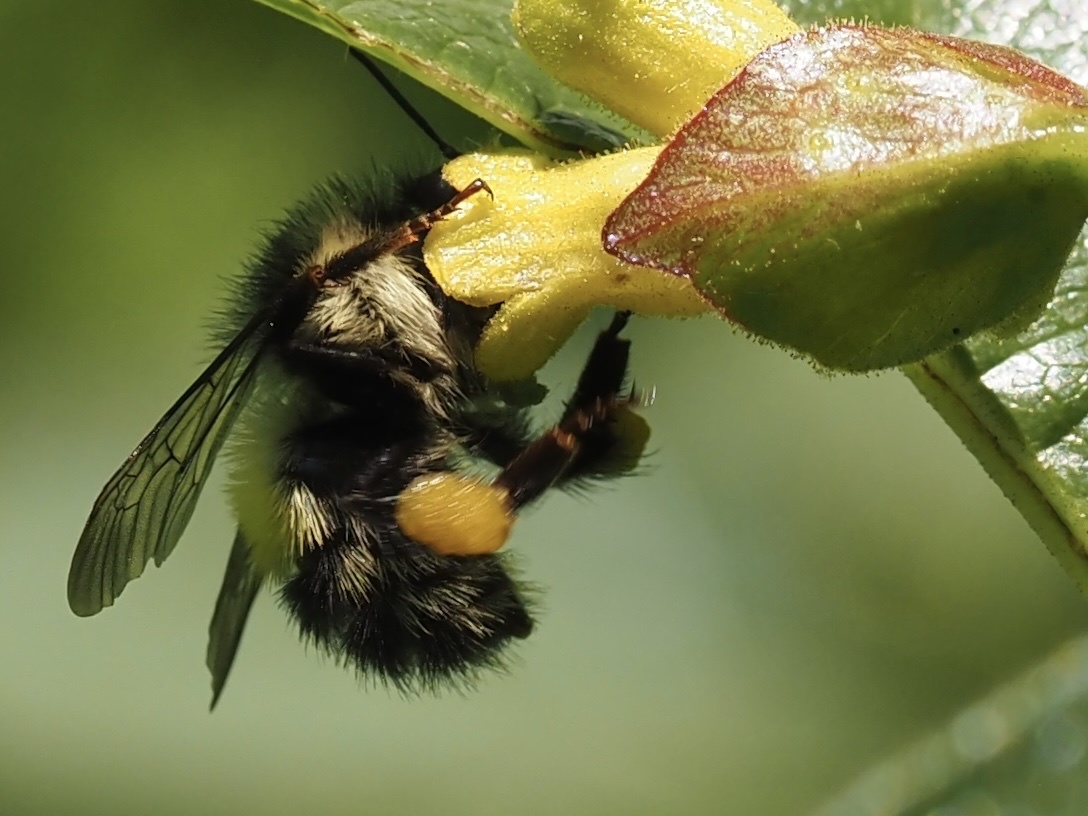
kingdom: Animalia
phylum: Arthropoda
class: Insecta
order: Hymenoptera
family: Apidae
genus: Bombus
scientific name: Bombus flavifrons
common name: Yellow head bumble bee
